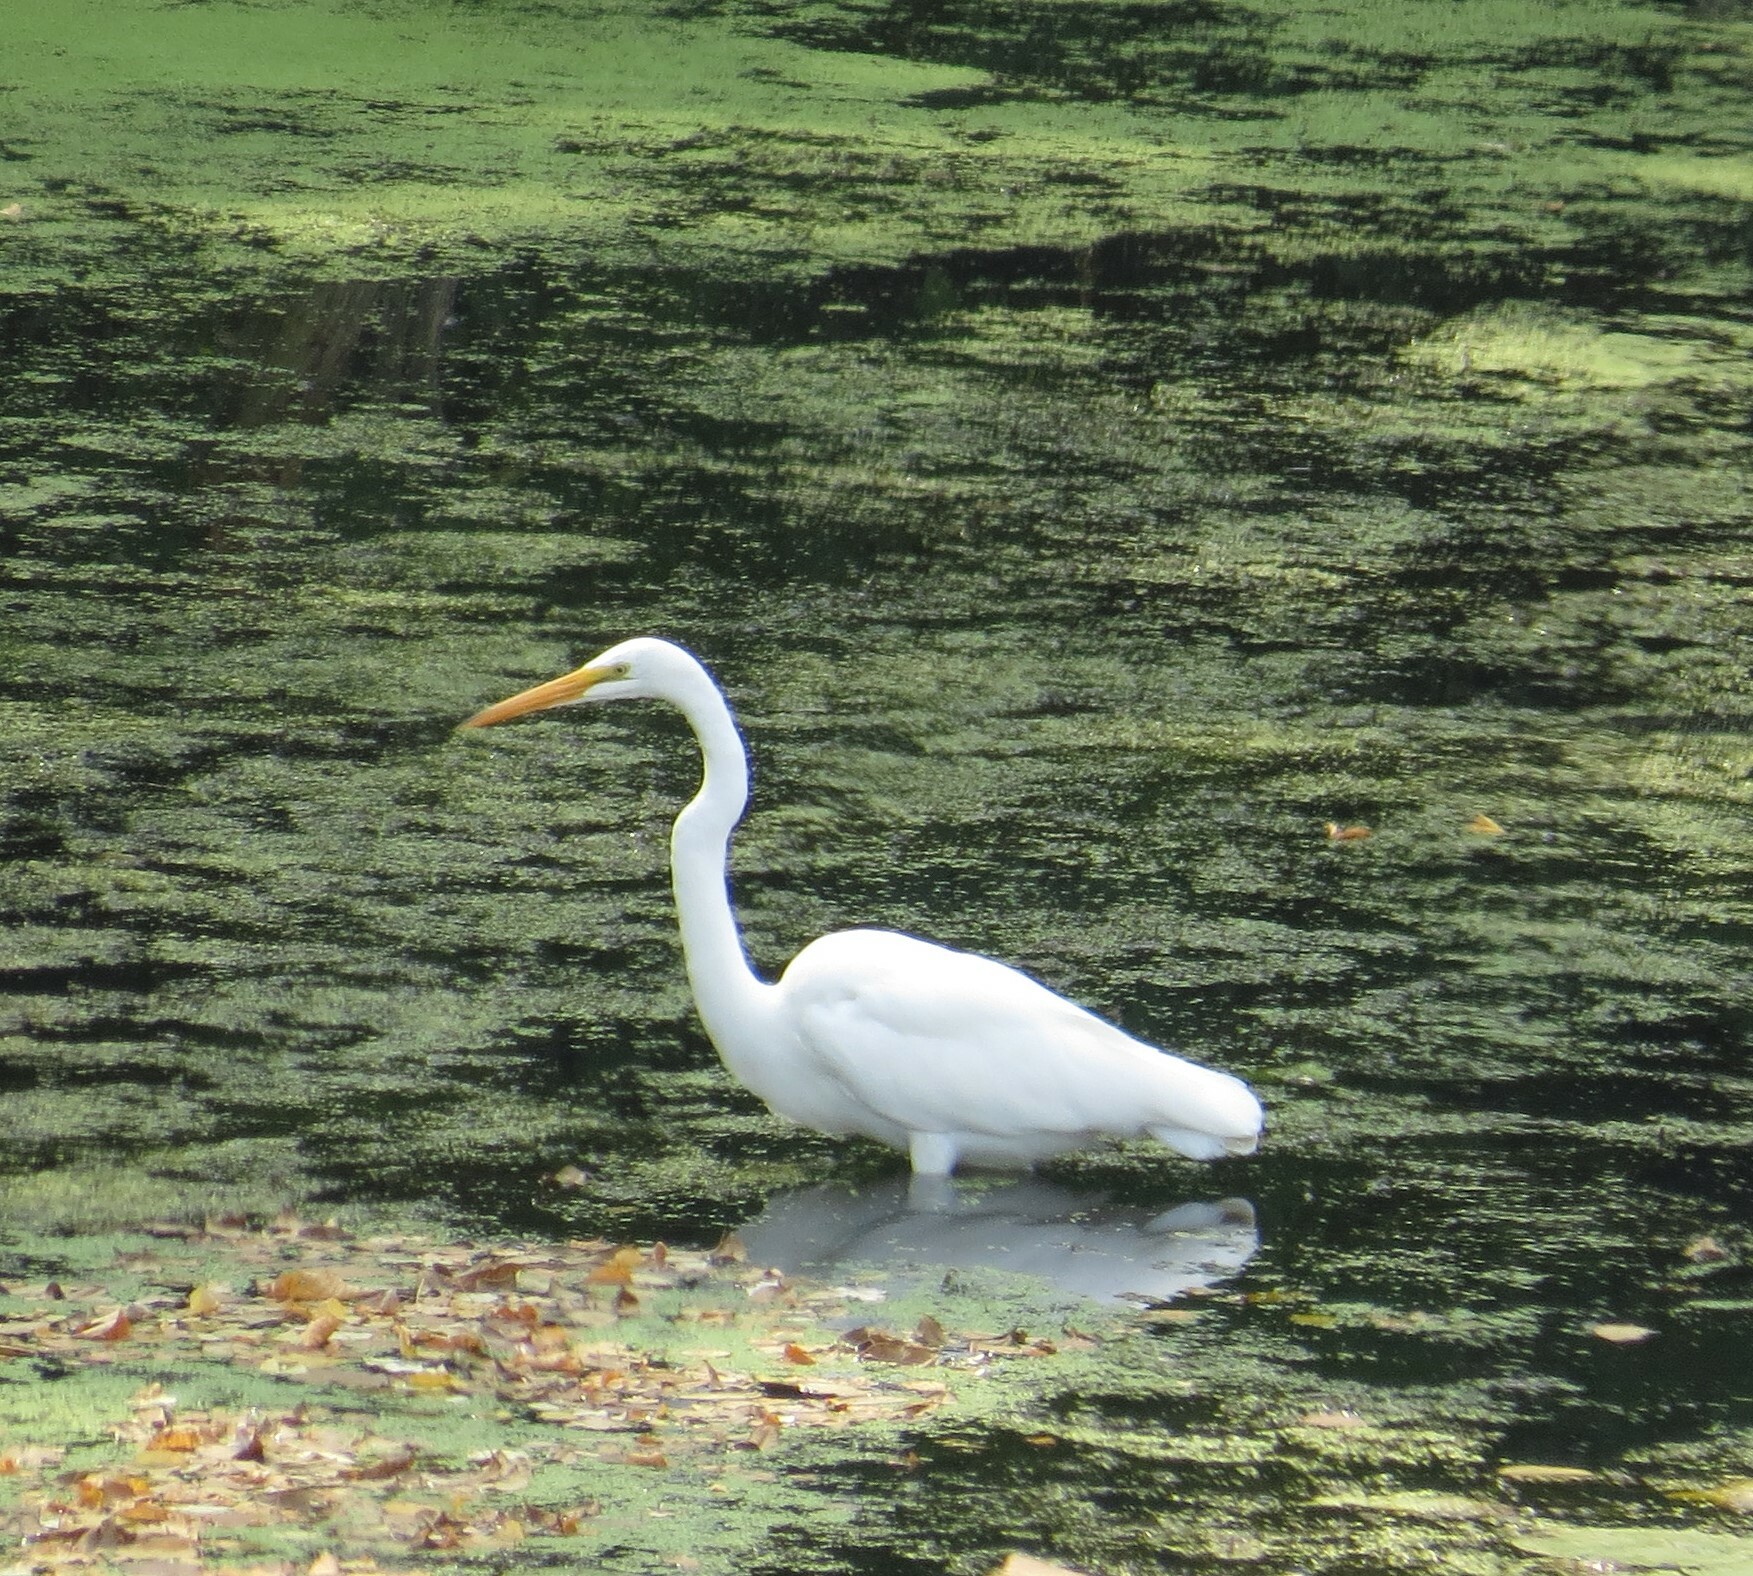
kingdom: Animalia
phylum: Chordata
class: Aves
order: Pelecaniformes
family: Ardeidae
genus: Ardea
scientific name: Ardea alba
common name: Great egret
